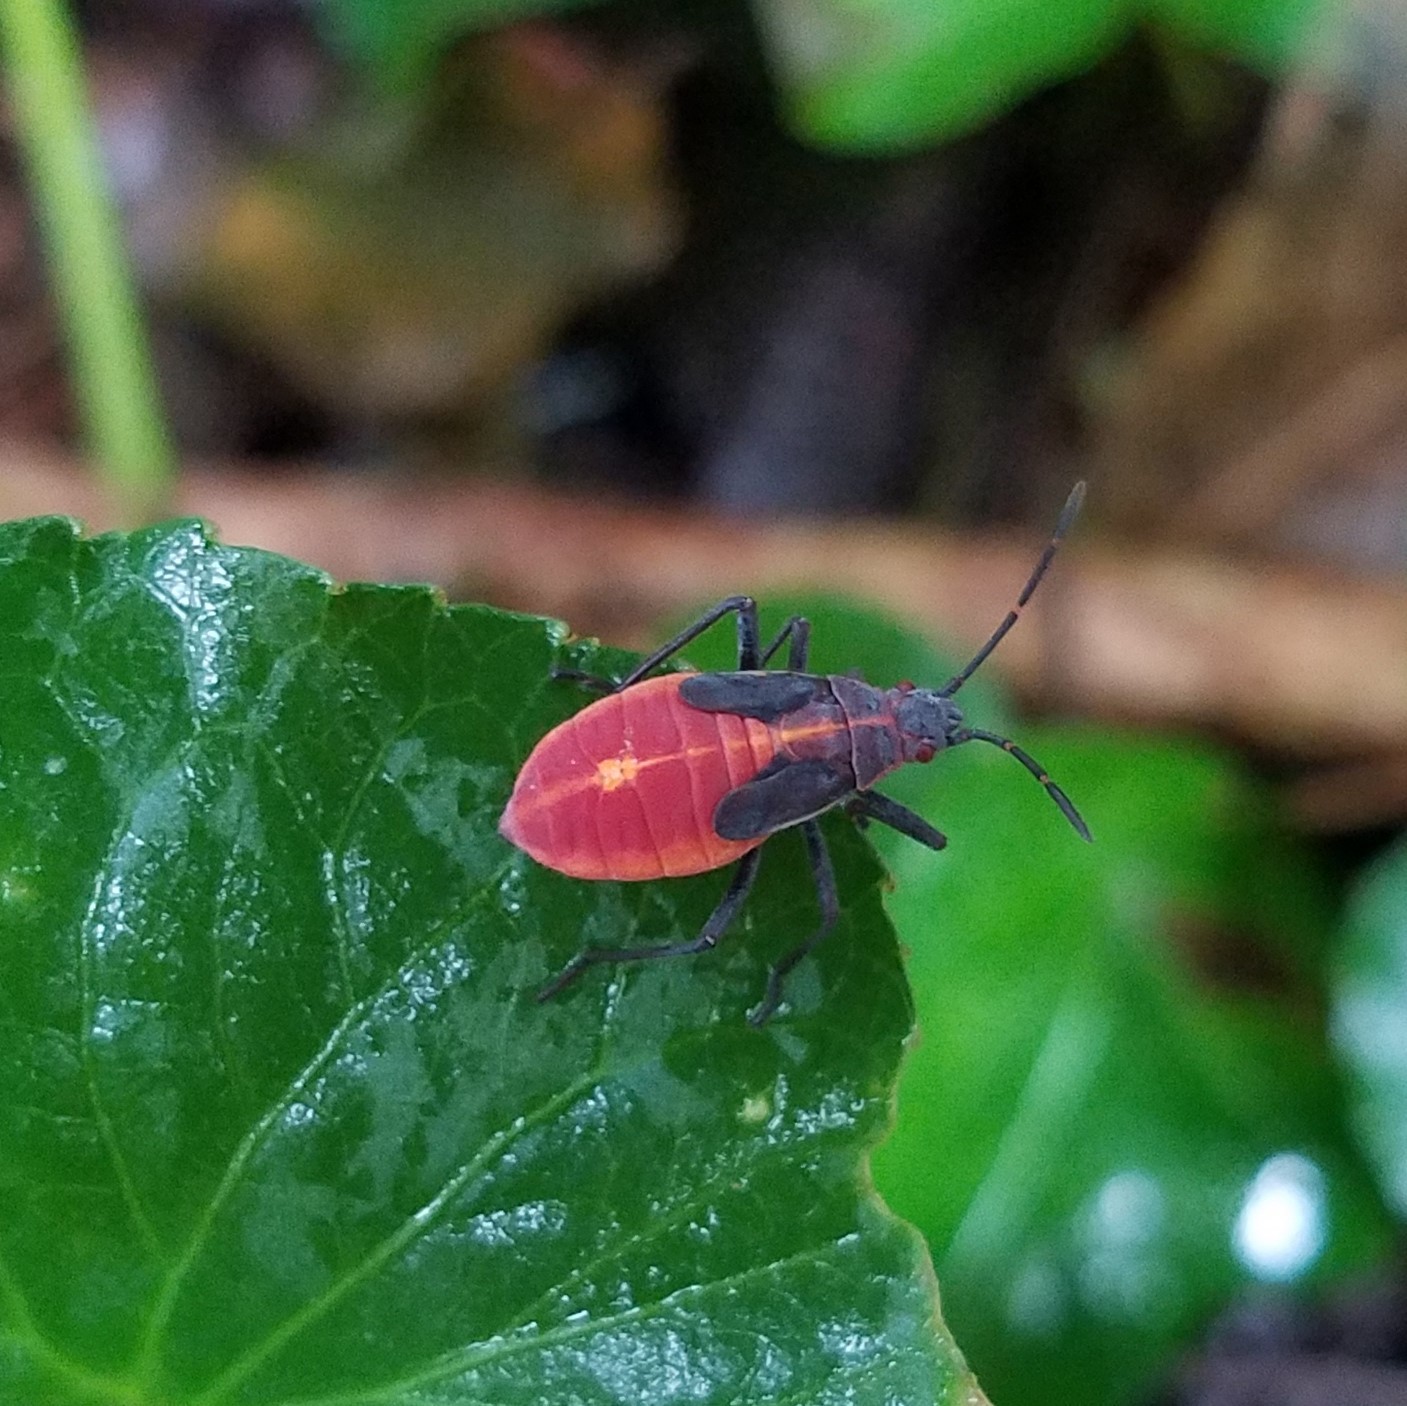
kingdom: Animalia
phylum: Arthropoda
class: Insecta
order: Hemiptera
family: Rhopalidae
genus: Boisea
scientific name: Boisea trivittata
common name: Boxelder bug
